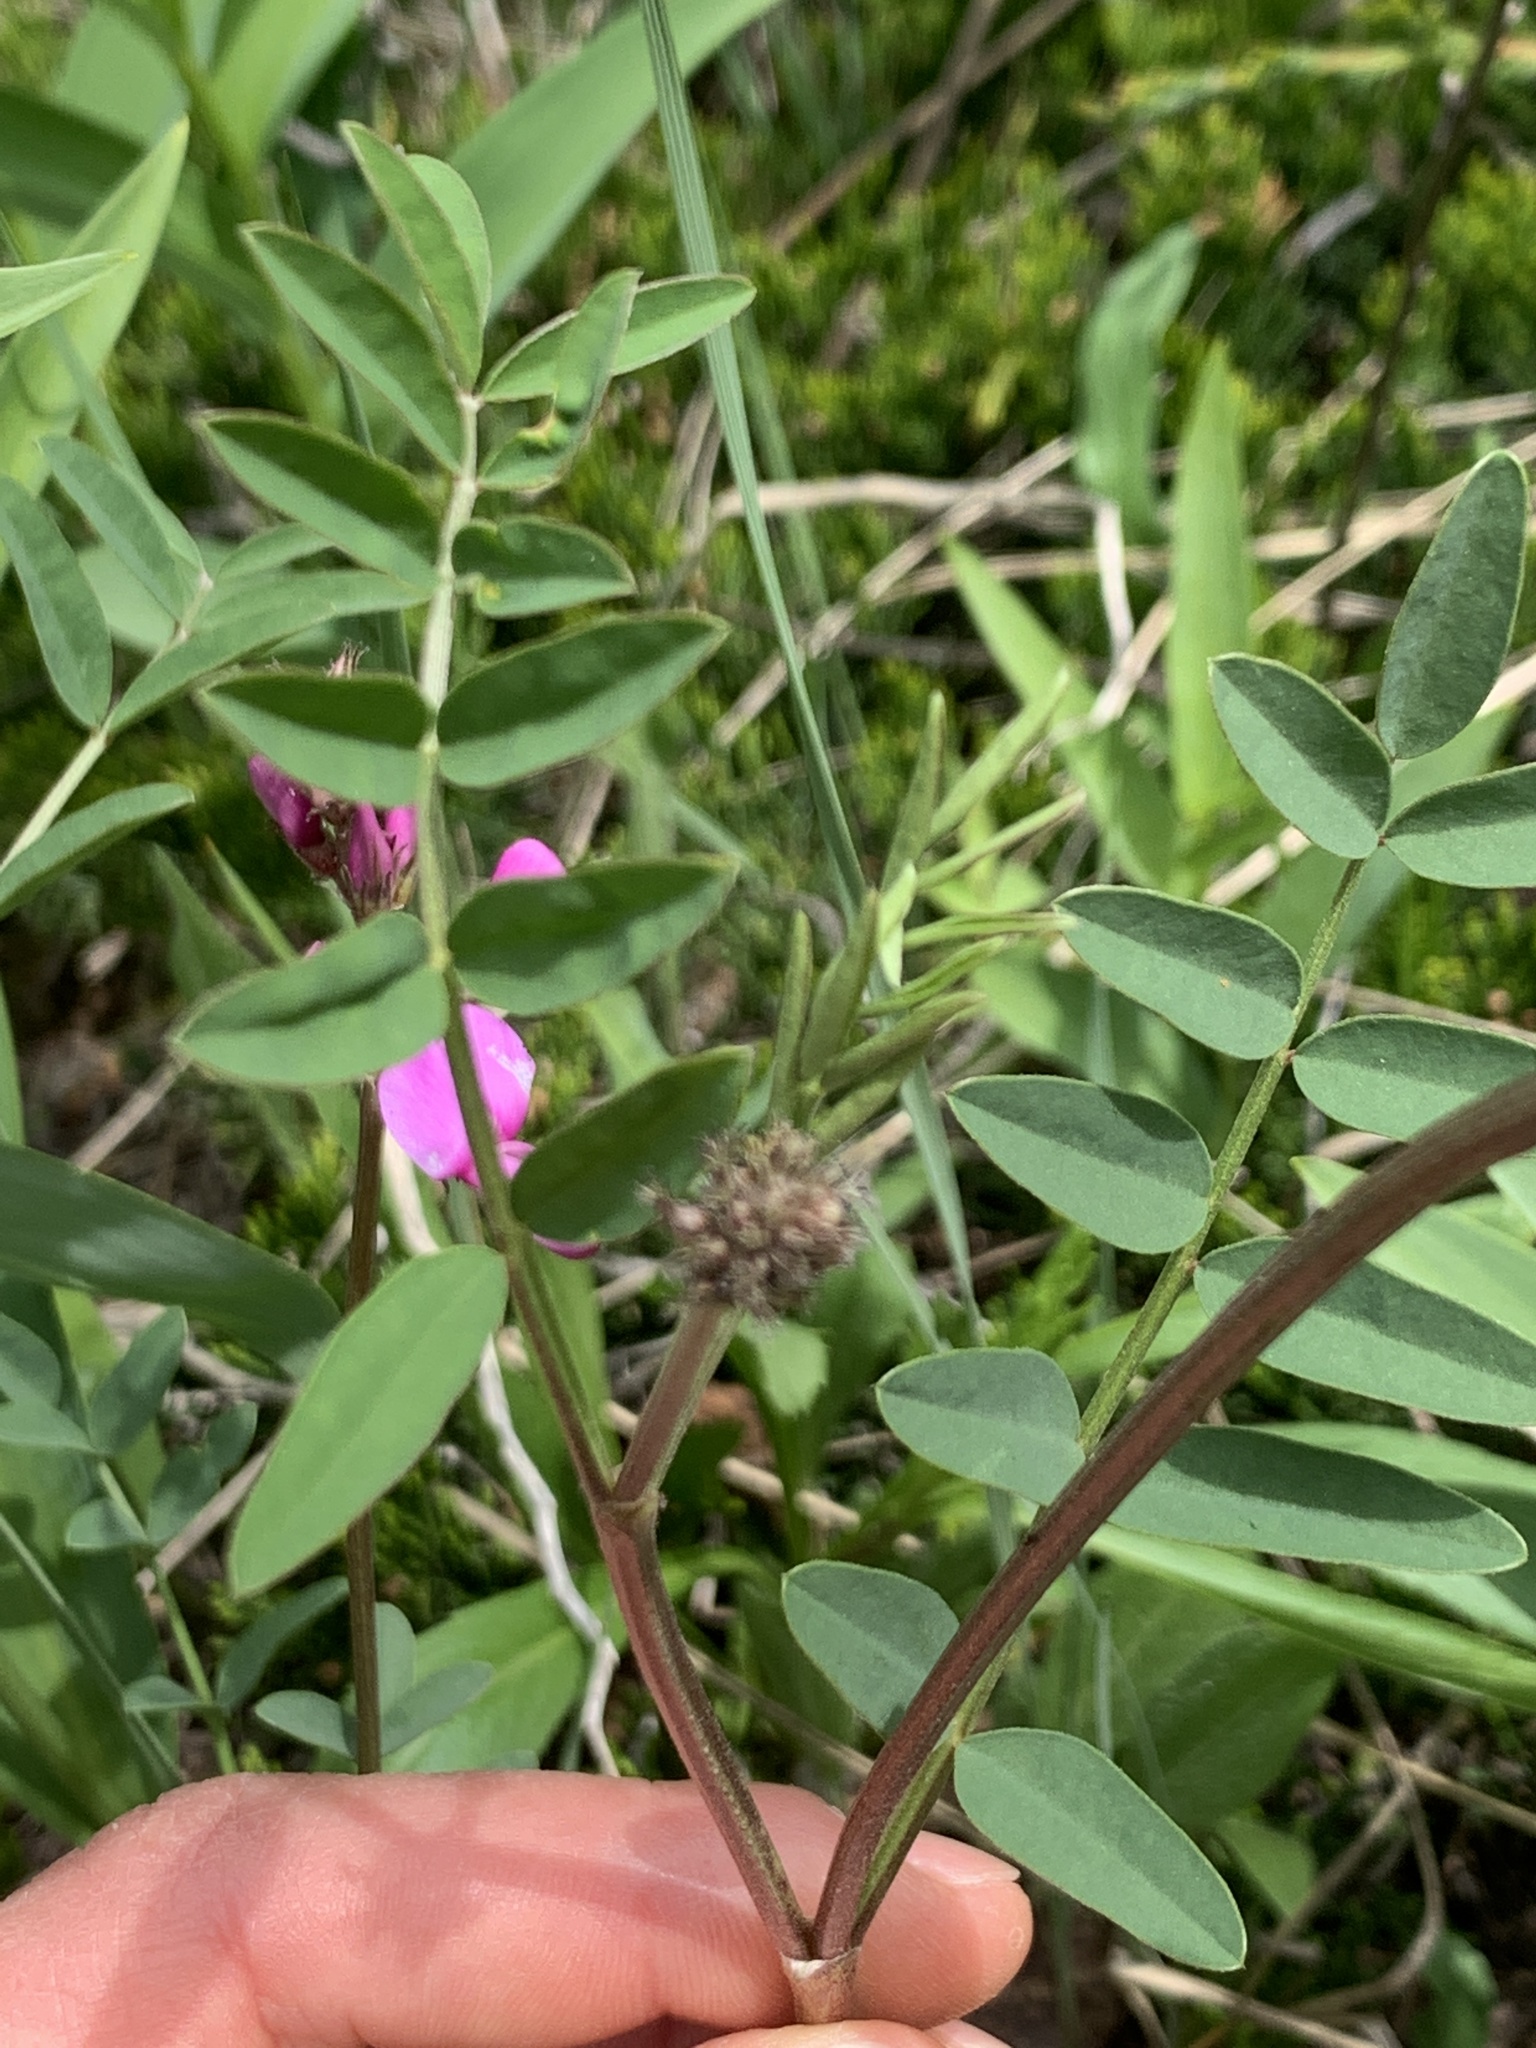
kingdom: Plantae
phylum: Tracheophyta
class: Magnoliopsida
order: Fabales
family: Fabaceae
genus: Hedysarum
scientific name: Hedysarum boreale
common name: Northern sweet-vetch
